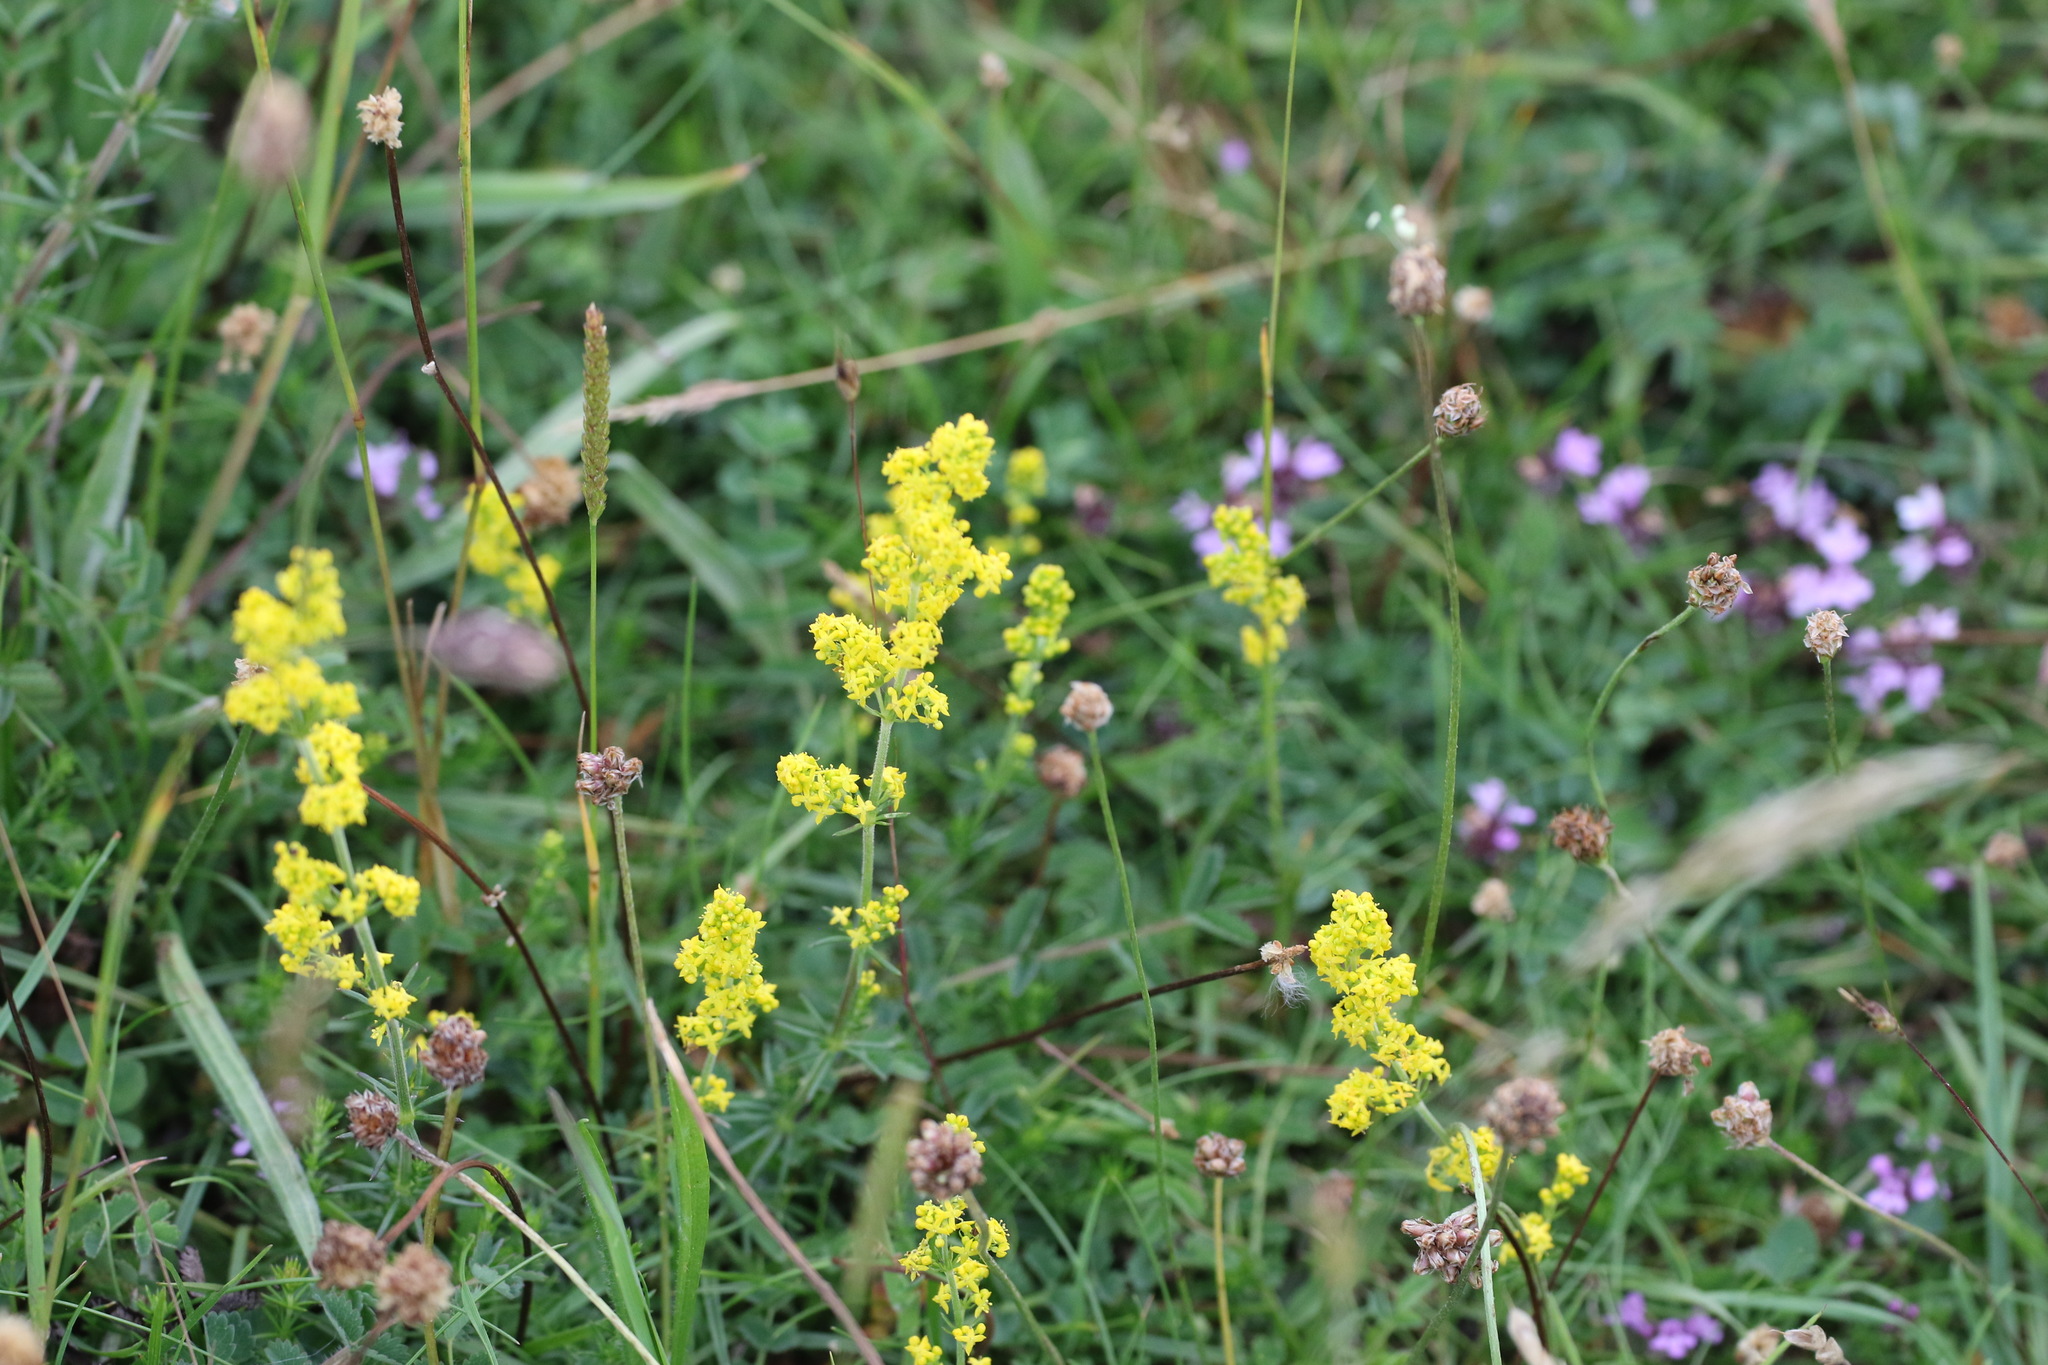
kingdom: Plantae
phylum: Tracheophyta
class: Magnoliopsida
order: Gentianales
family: Rubiaceae
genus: Galium
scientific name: Galium verum
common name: Lady's bedstraw
